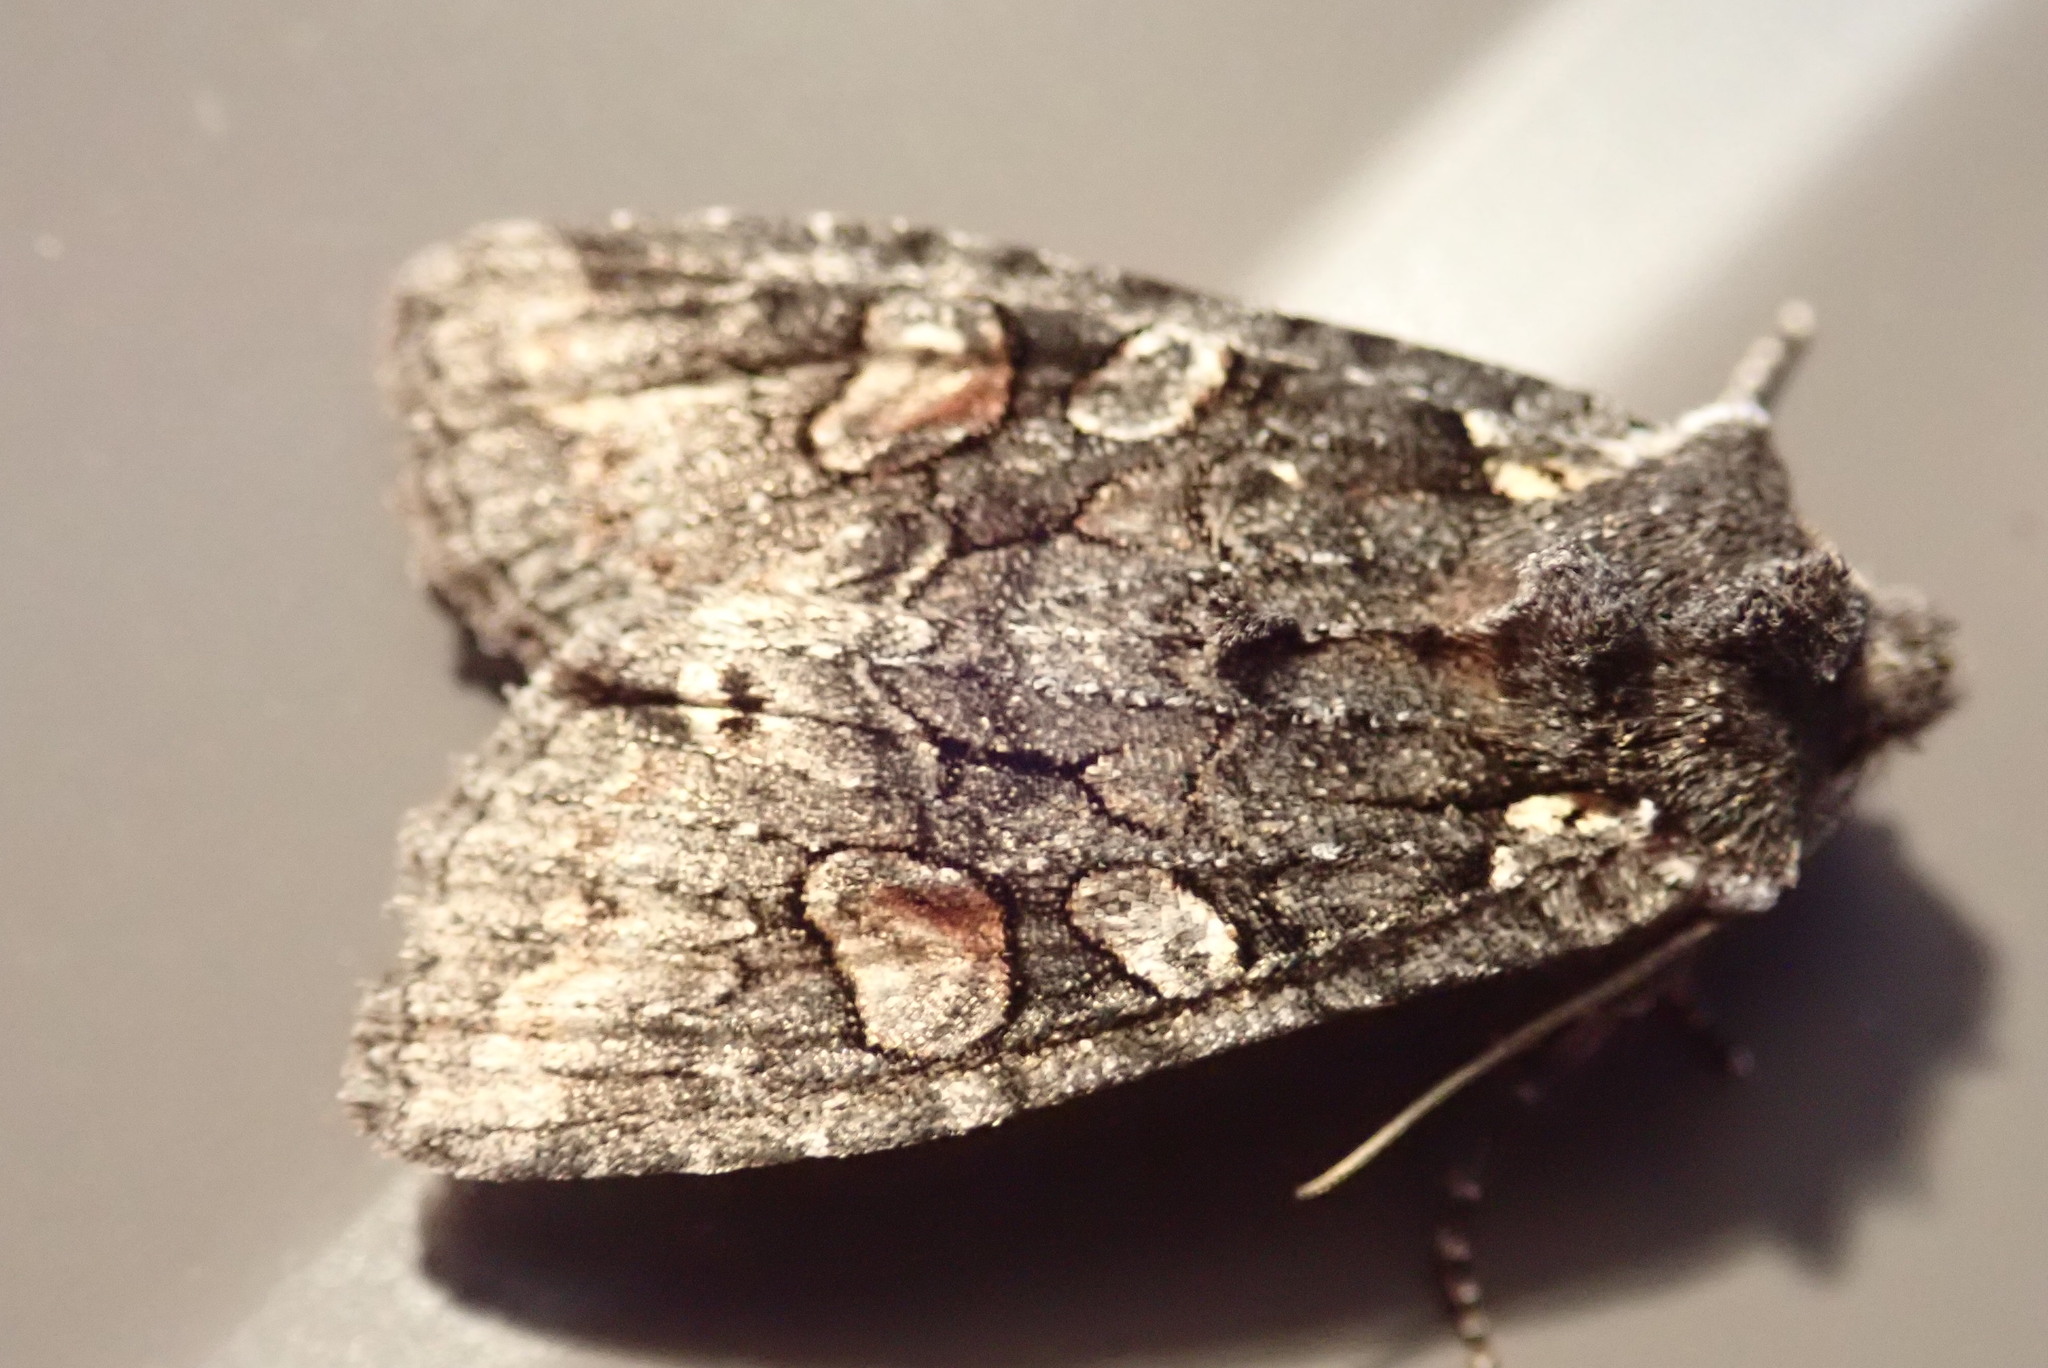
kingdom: Animalia
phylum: Arthropoda
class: Insecta
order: Lepidoptera
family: Noctuidae
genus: Lithophane
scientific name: Lithophane pexata
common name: Plush-naped pinion moth
